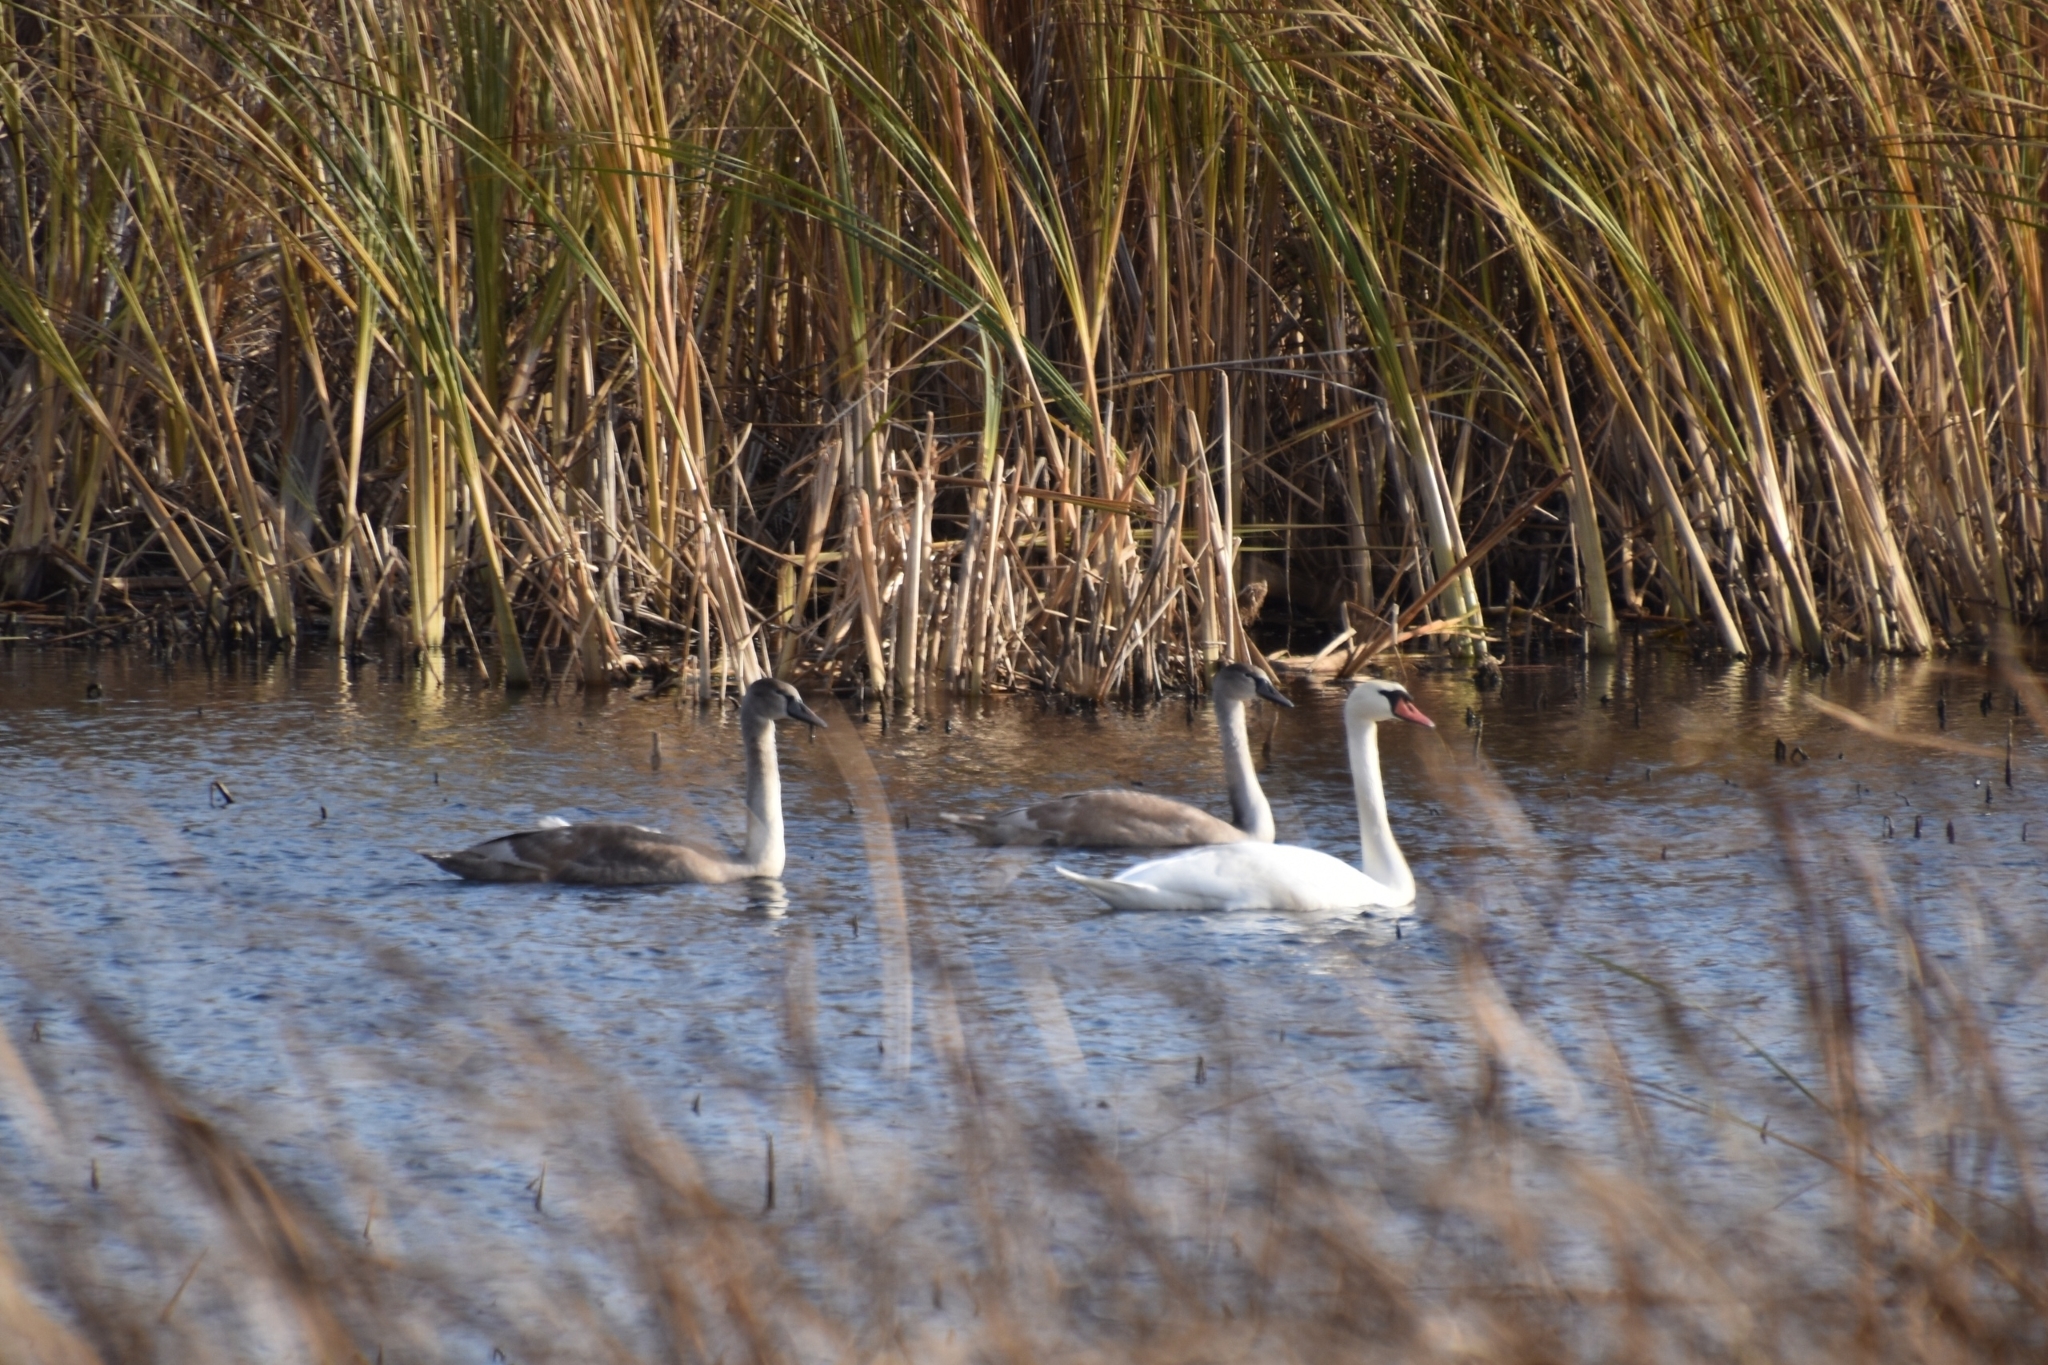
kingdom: Animalia
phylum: Chordata
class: Aves
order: Anseriformes
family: Anatidae
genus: Cygnus
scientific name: Cygnus olor
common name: Mute swan
